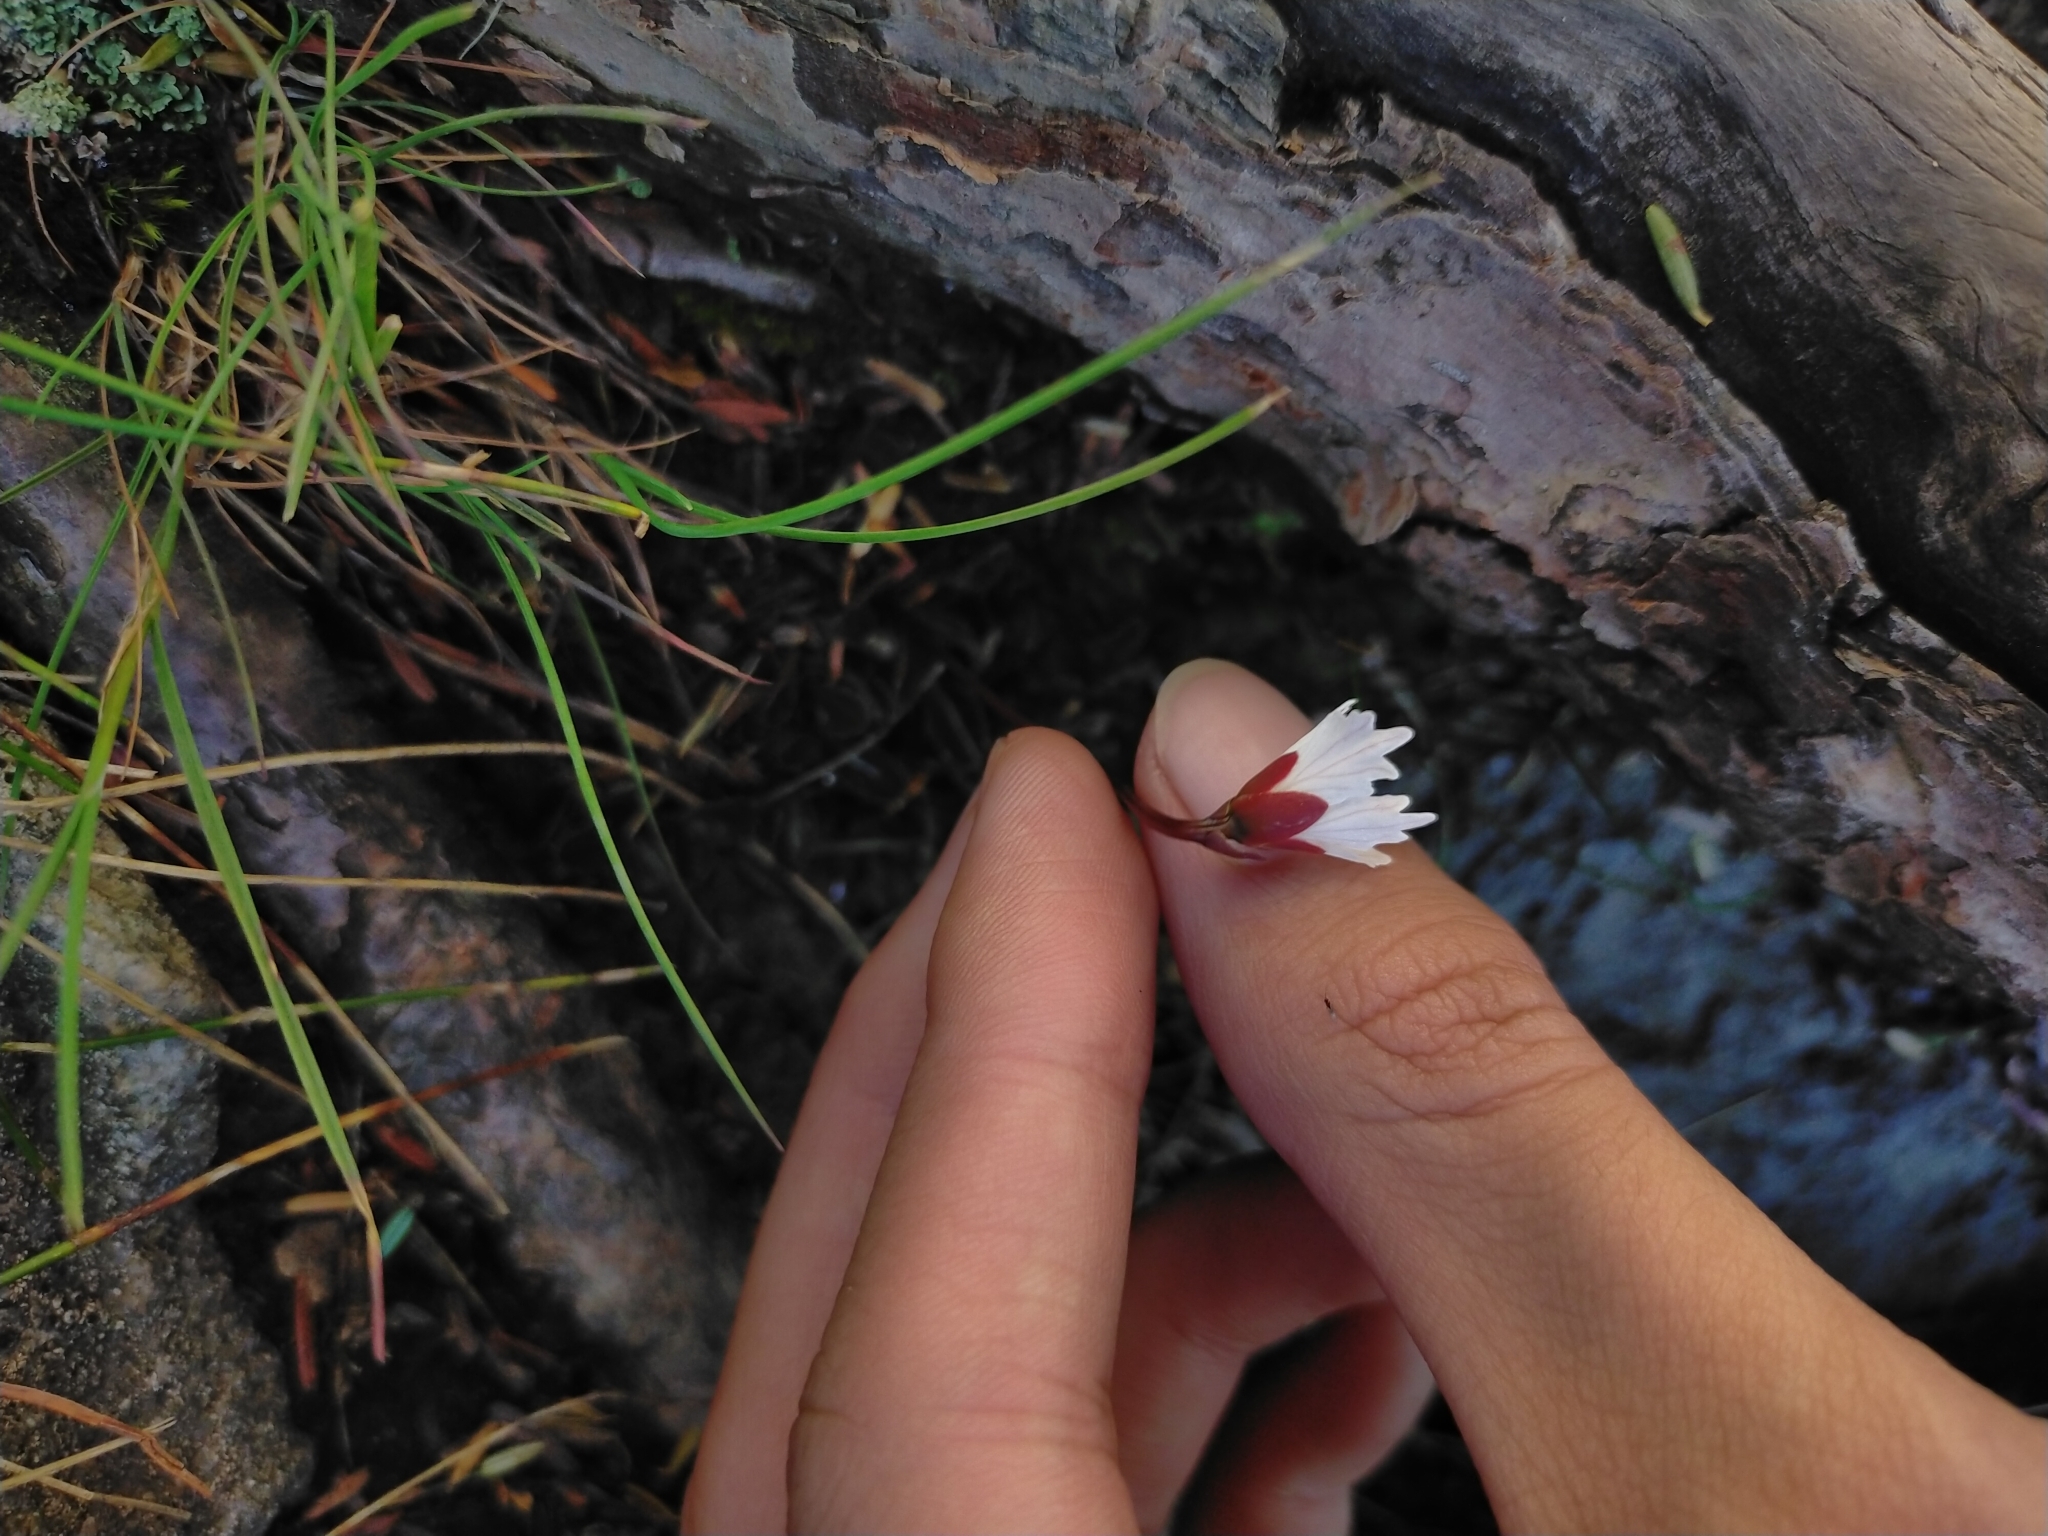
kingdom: Plantae
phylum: Tracheophyta
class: Magnoliopsida
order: Caryophyllales
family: Caryophyllaceae
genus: Cerastium
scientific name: Cerastium morrisonense
